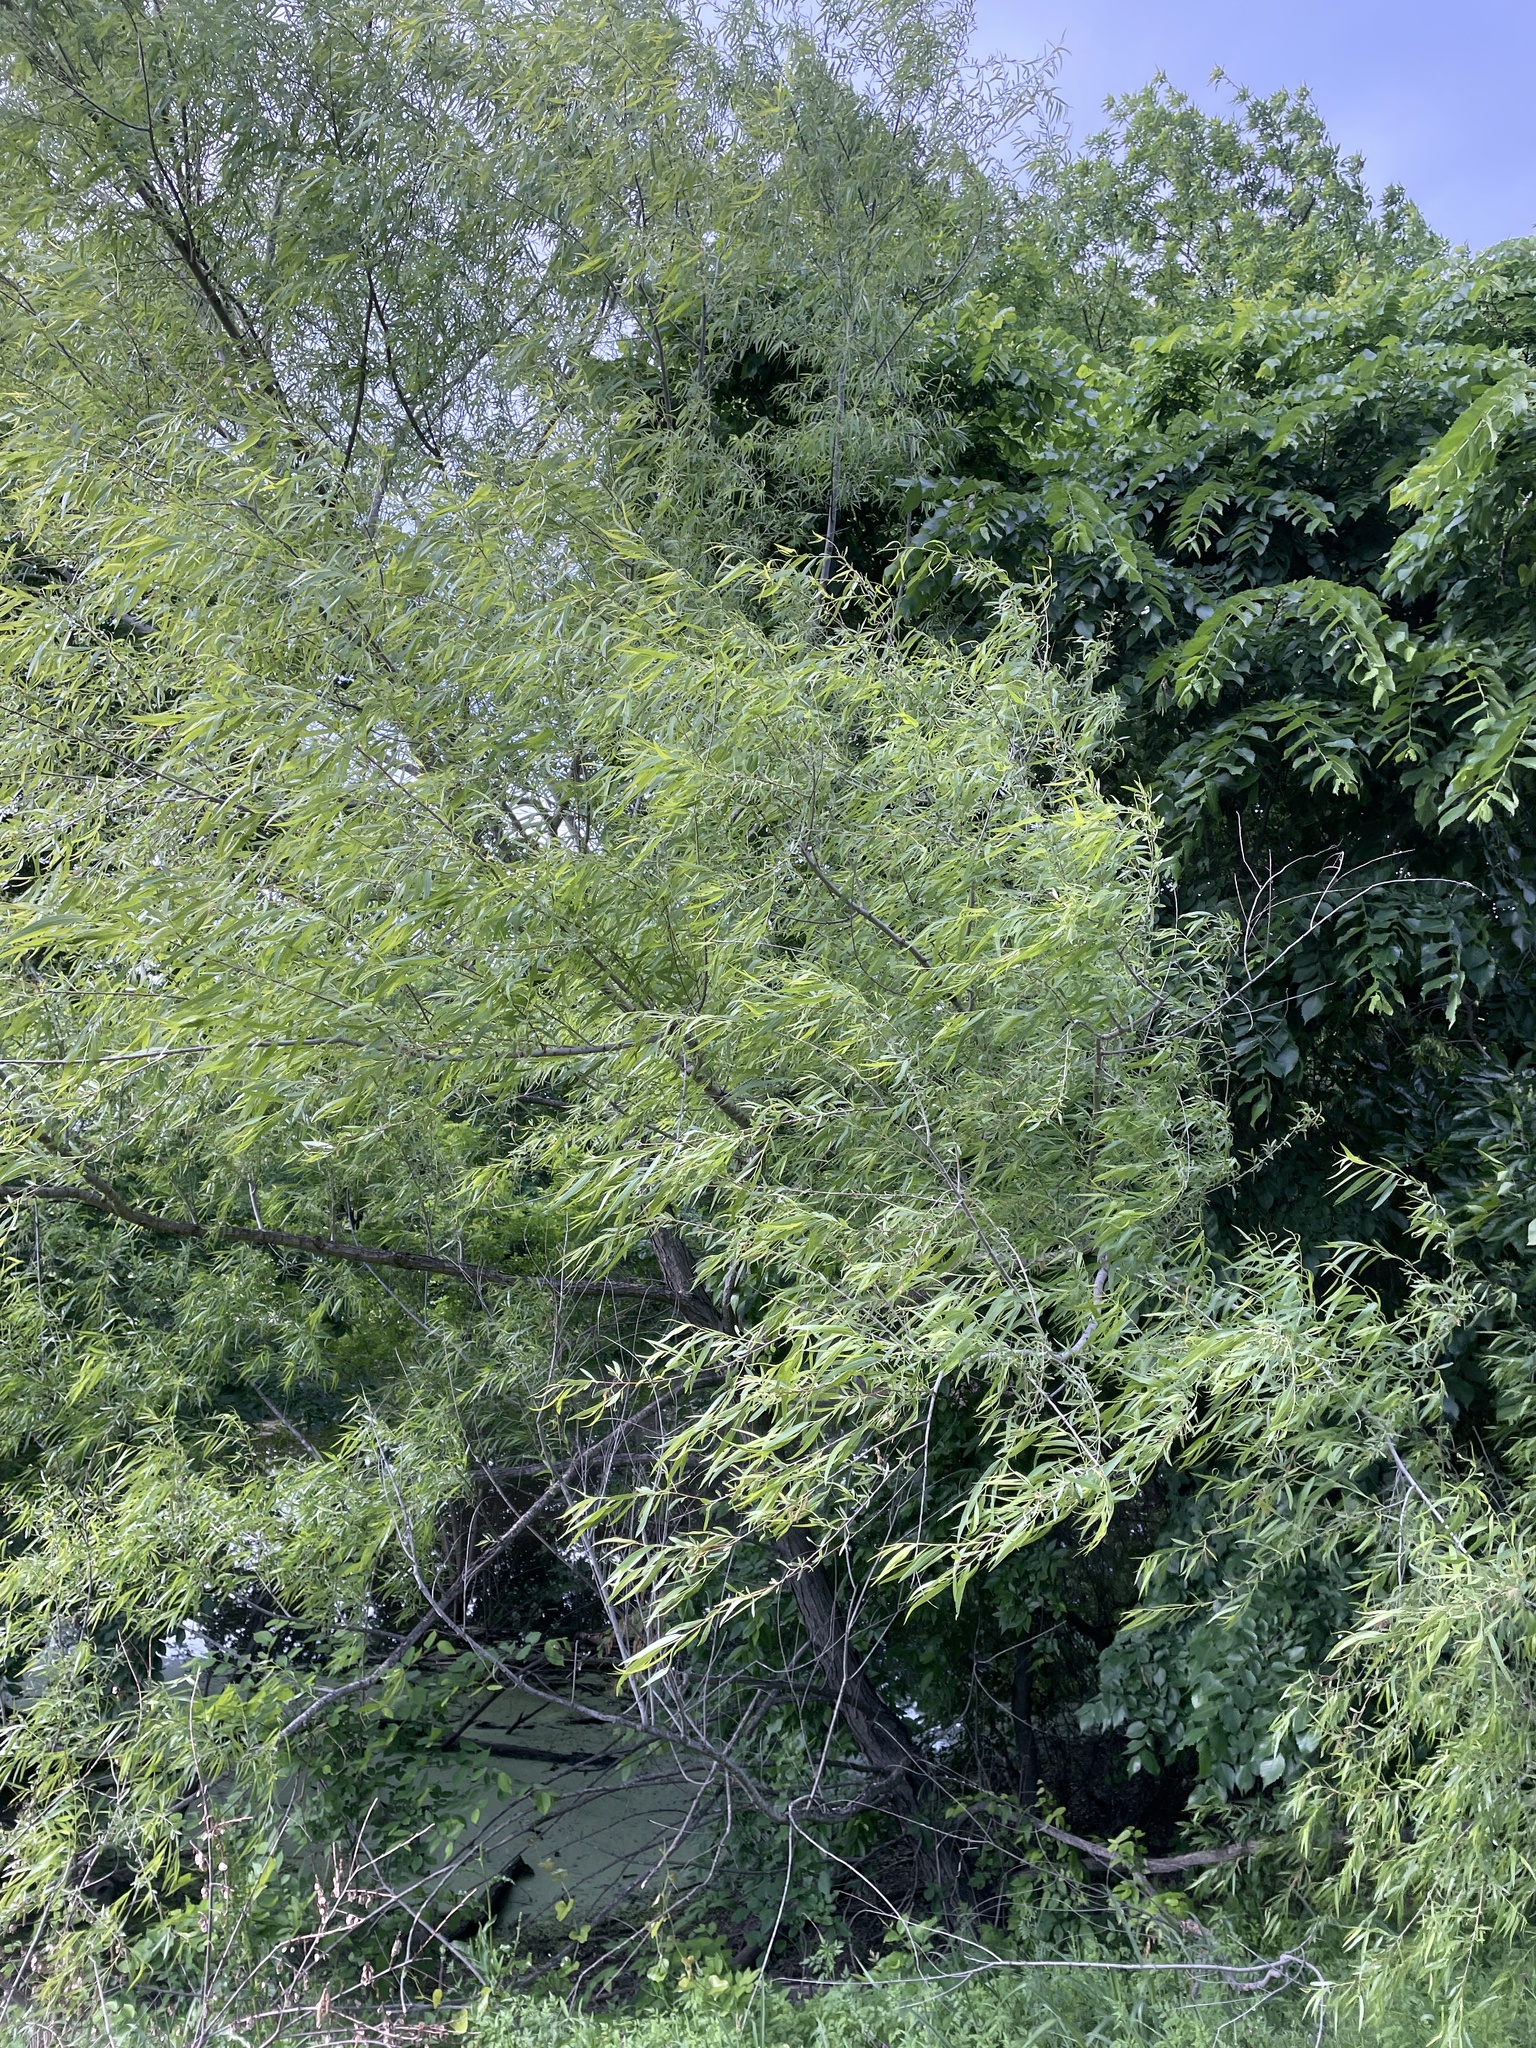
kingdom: Plantae
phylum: Tracheophyta
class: Magnoliopsida
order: Malpighiales
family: Salicaceae
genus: Salix
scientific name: Salix nigra
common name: Black willow
